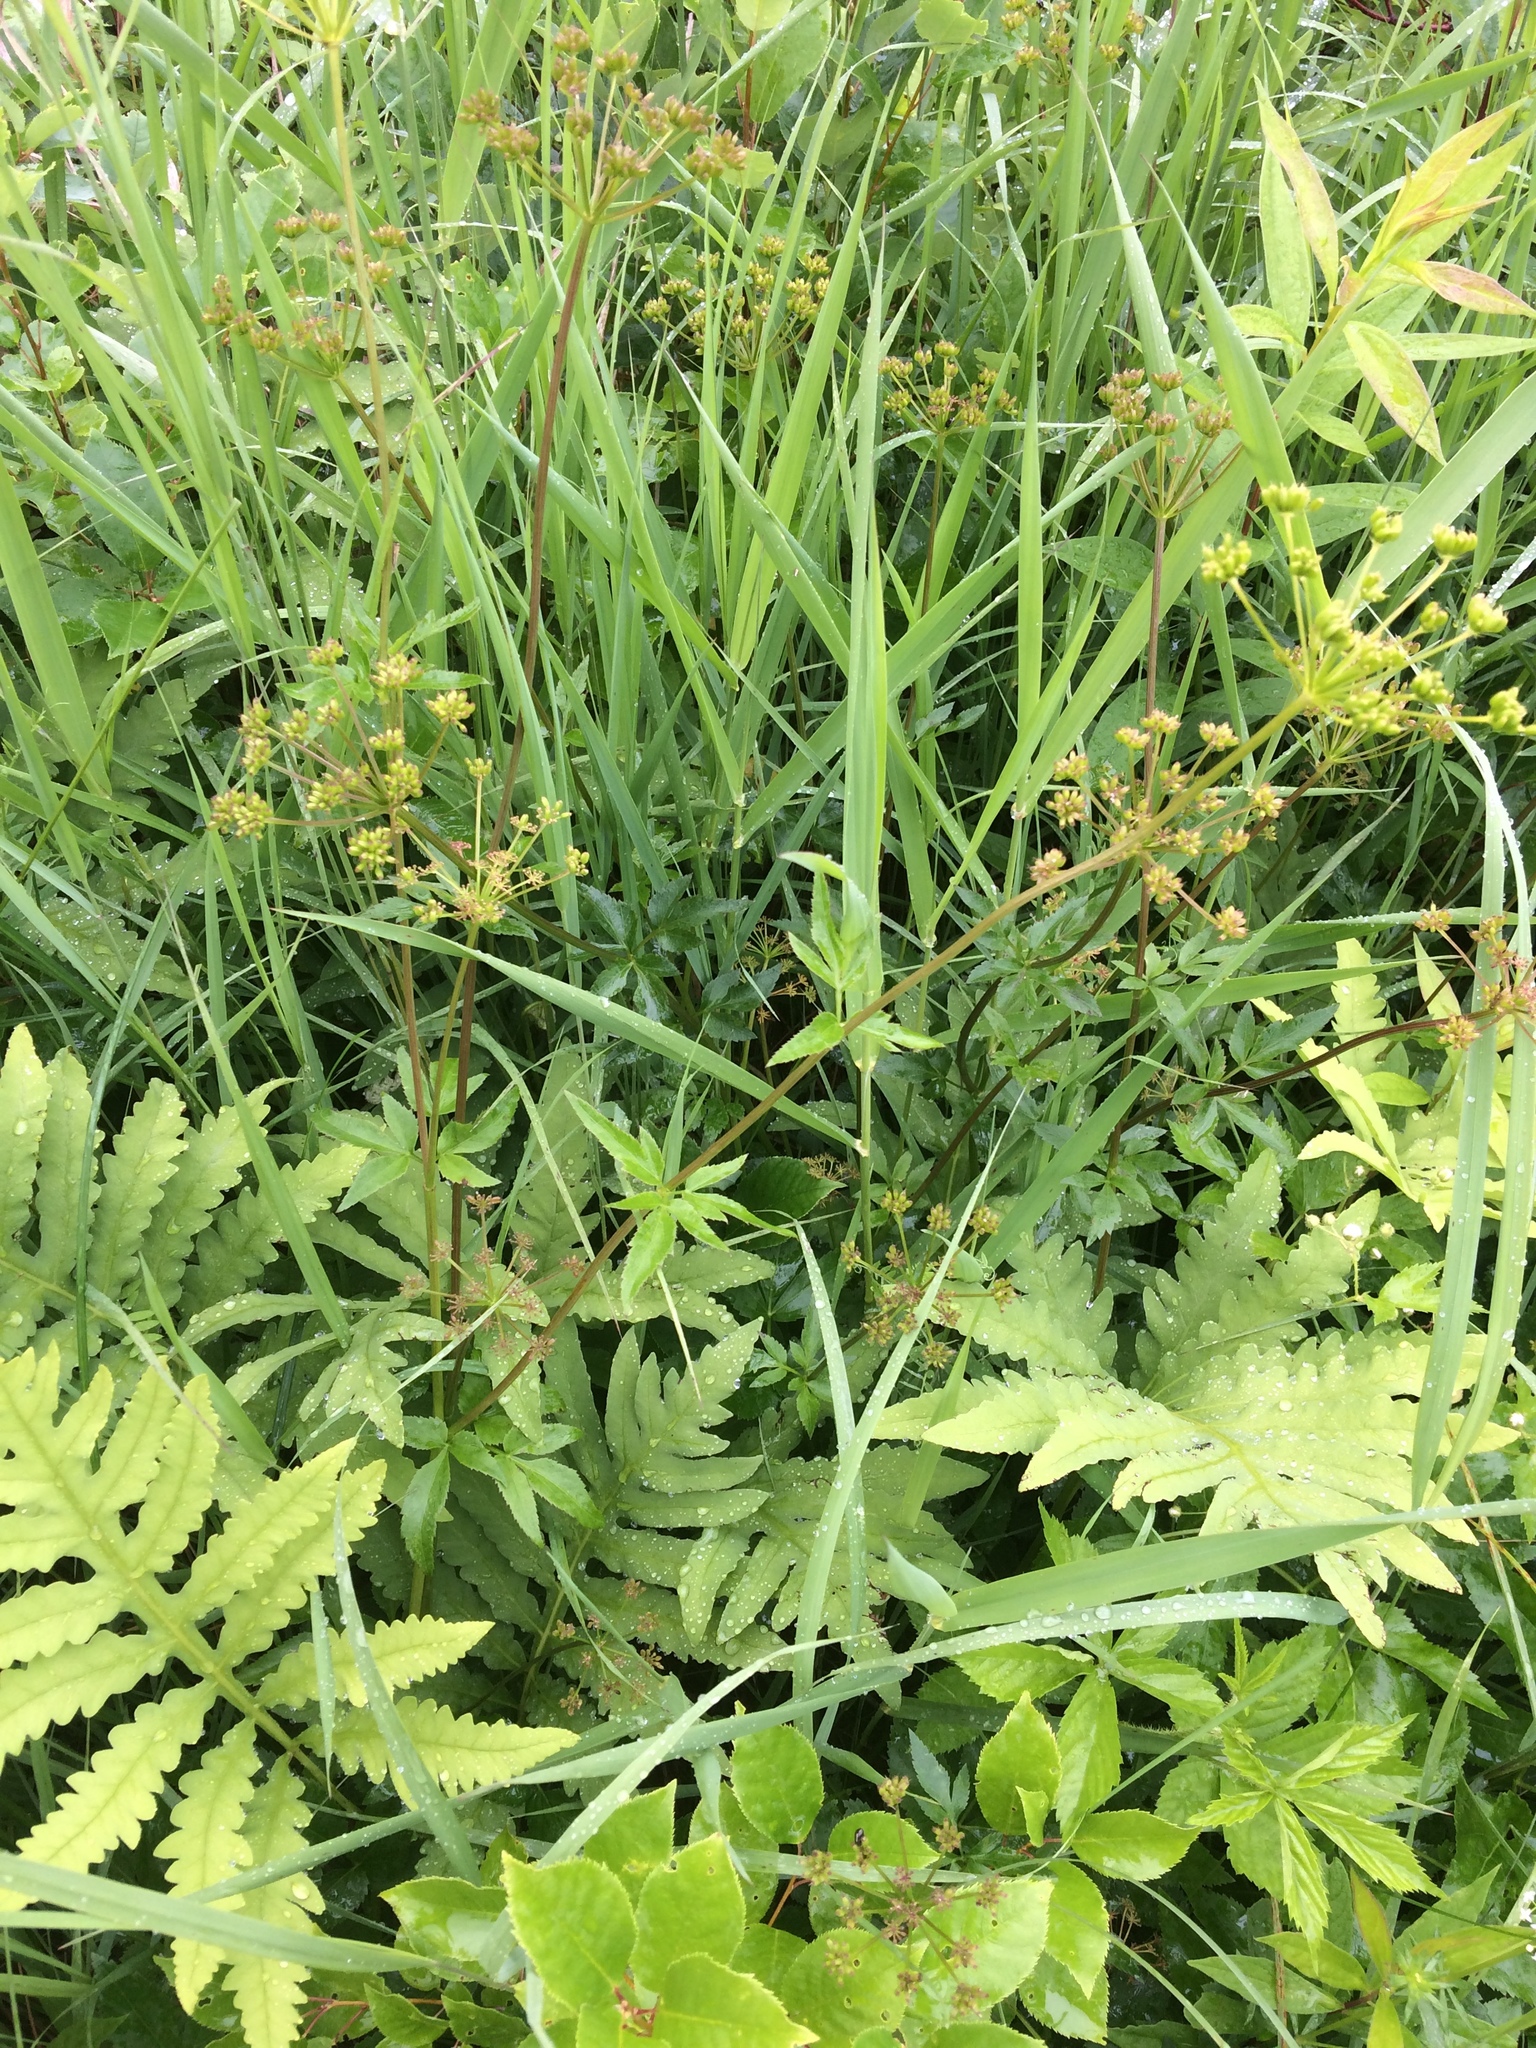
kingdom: Plantae
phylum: Tracheophyta
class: Magnoliopsida
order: Apiales
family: Apiaceae
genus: Zizia
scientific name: Zizia aurea
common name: Golden alexanders
